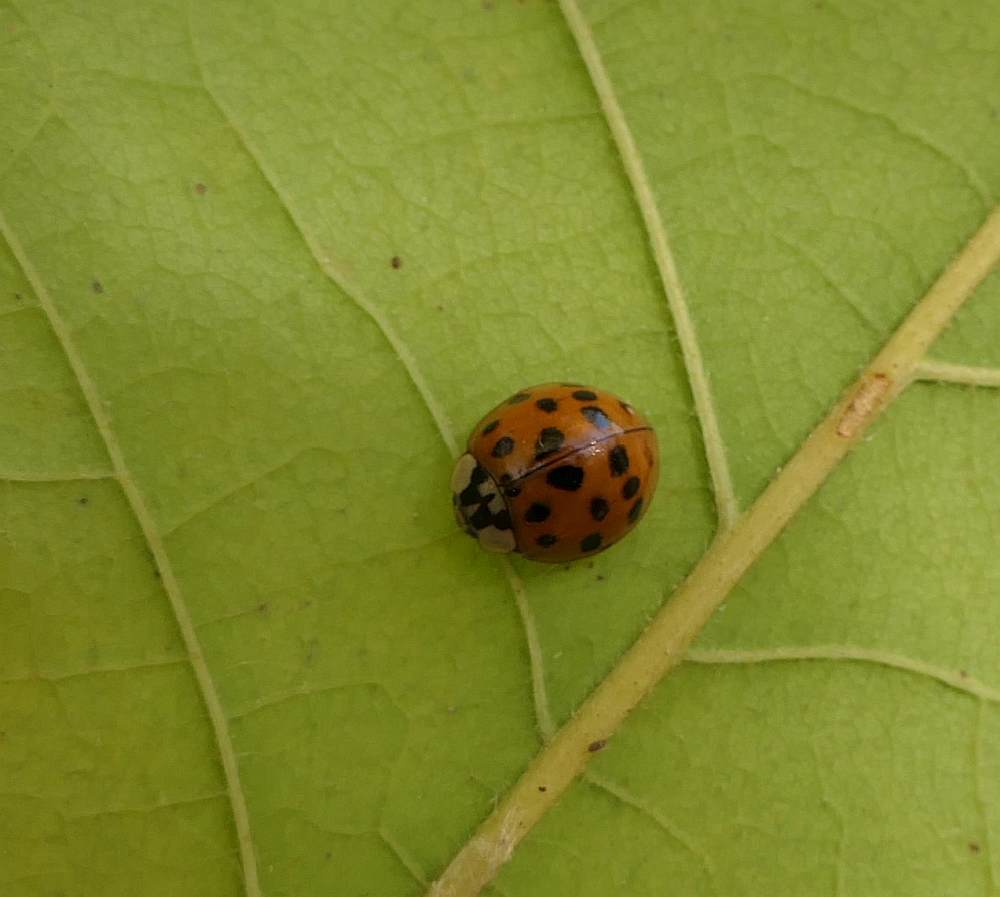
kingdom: Animalia
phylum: Arthropoda
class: Insecta
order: Coleoptera
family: Coccinellidae
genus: Harmonia
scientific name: Harmonia axyridis
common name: Harlequin ladybird
